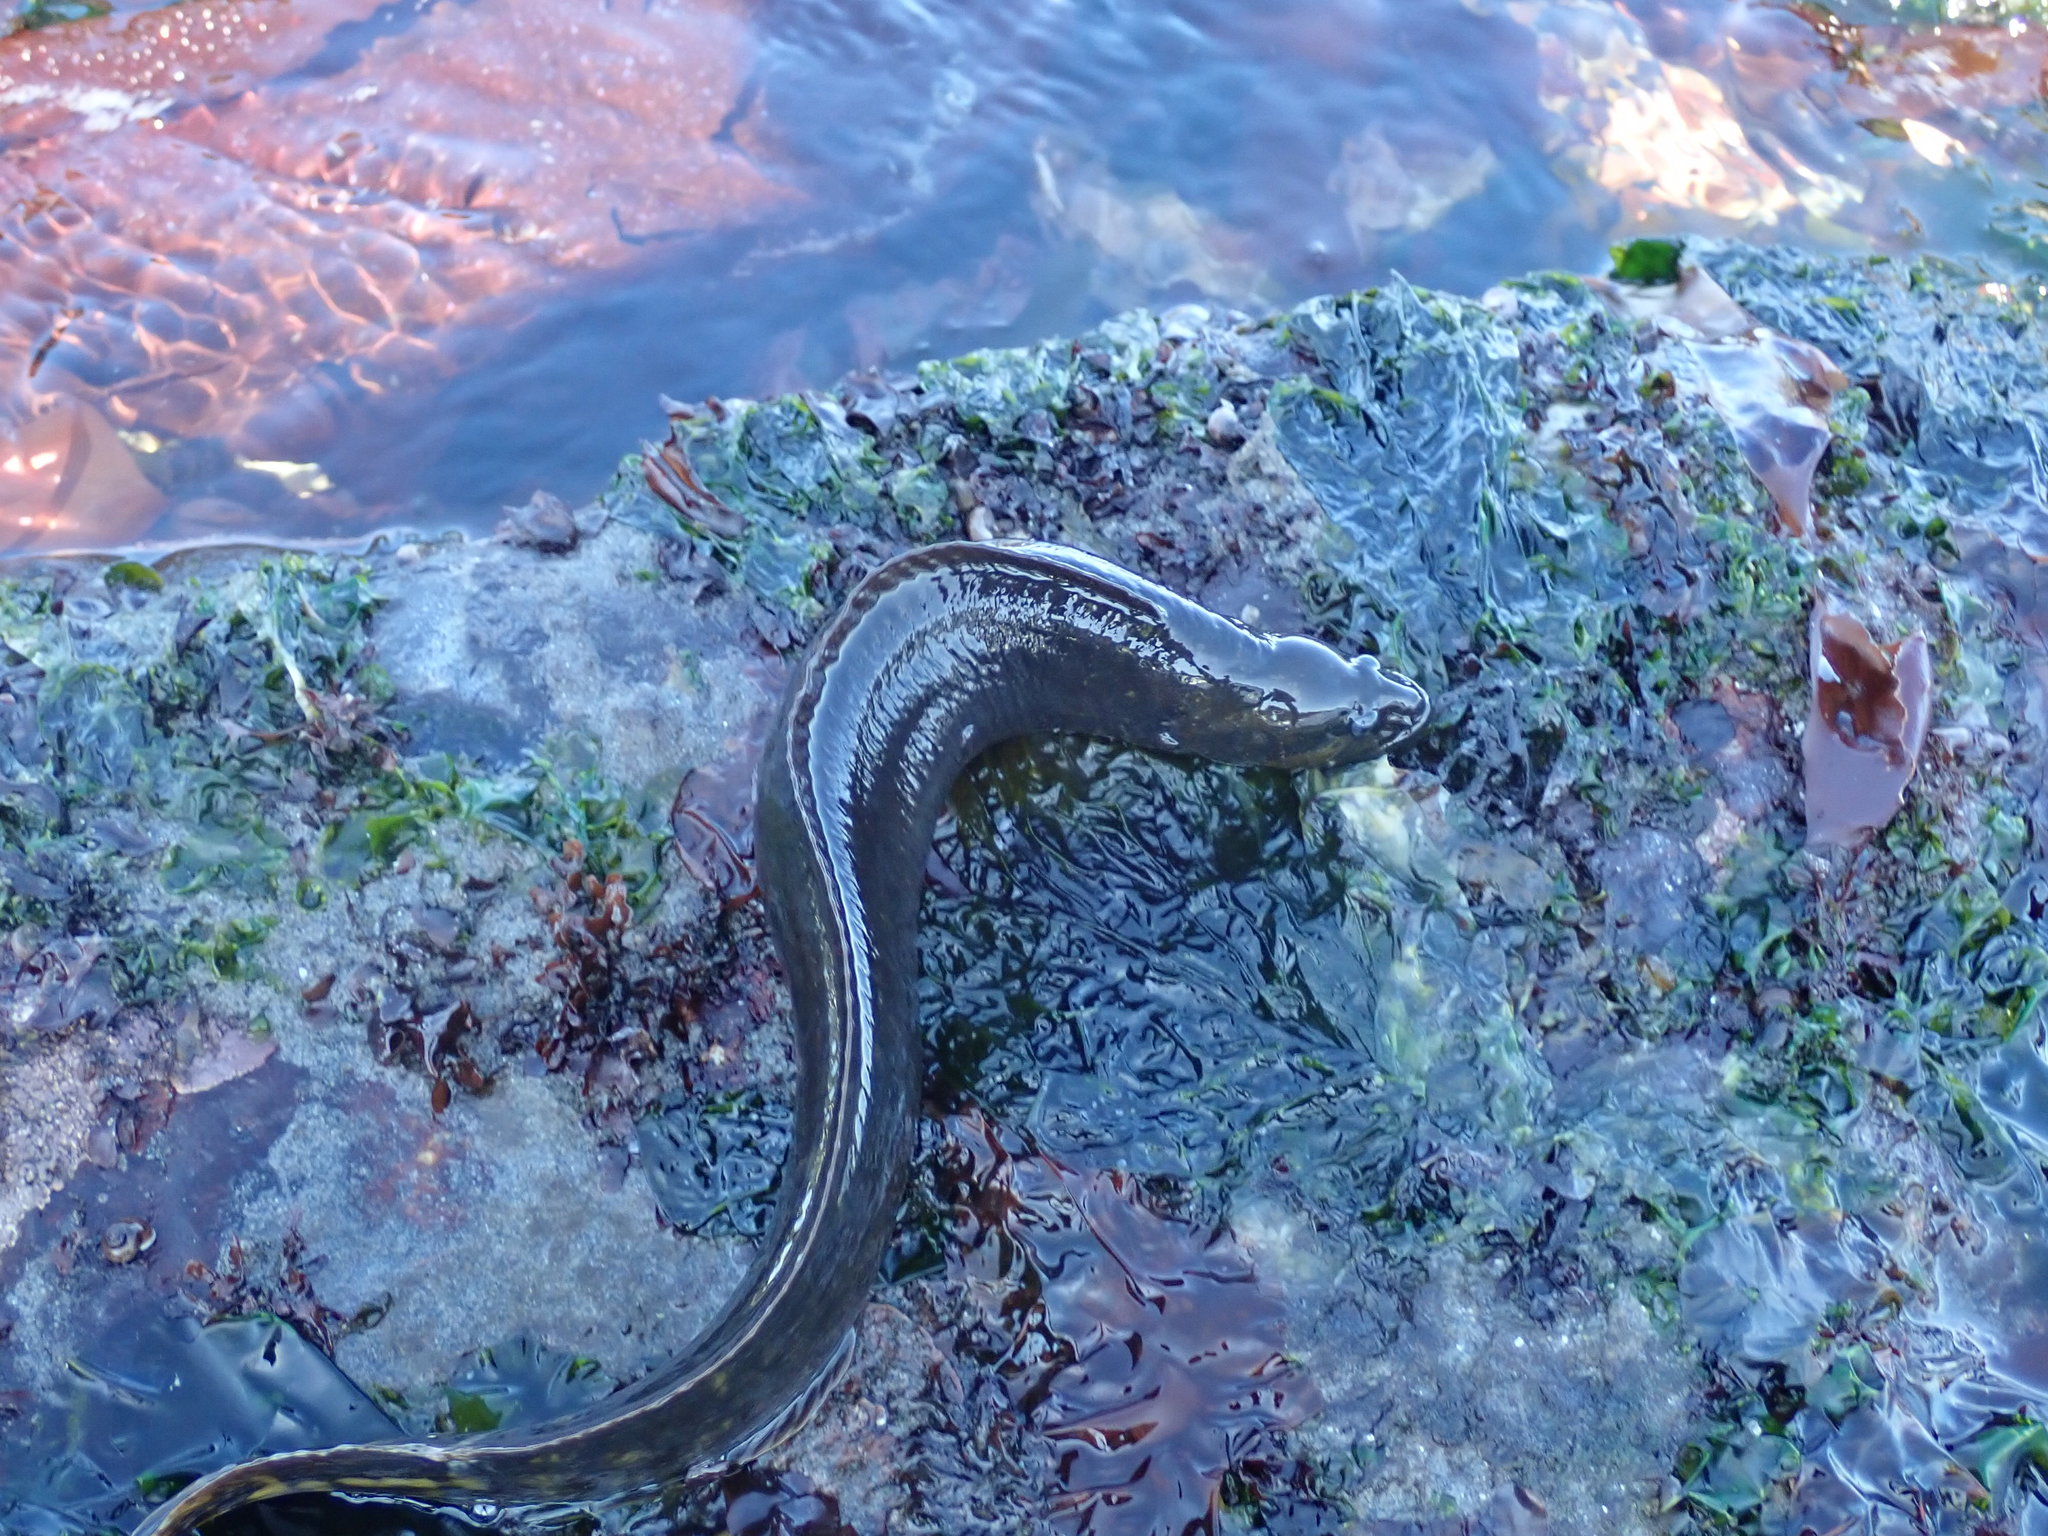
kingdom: Animalia
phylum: Chordata
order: Perciformes
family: Stichaeidae
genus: Xiphister
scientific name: Xiphister mucosus
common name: Rock prickleback
